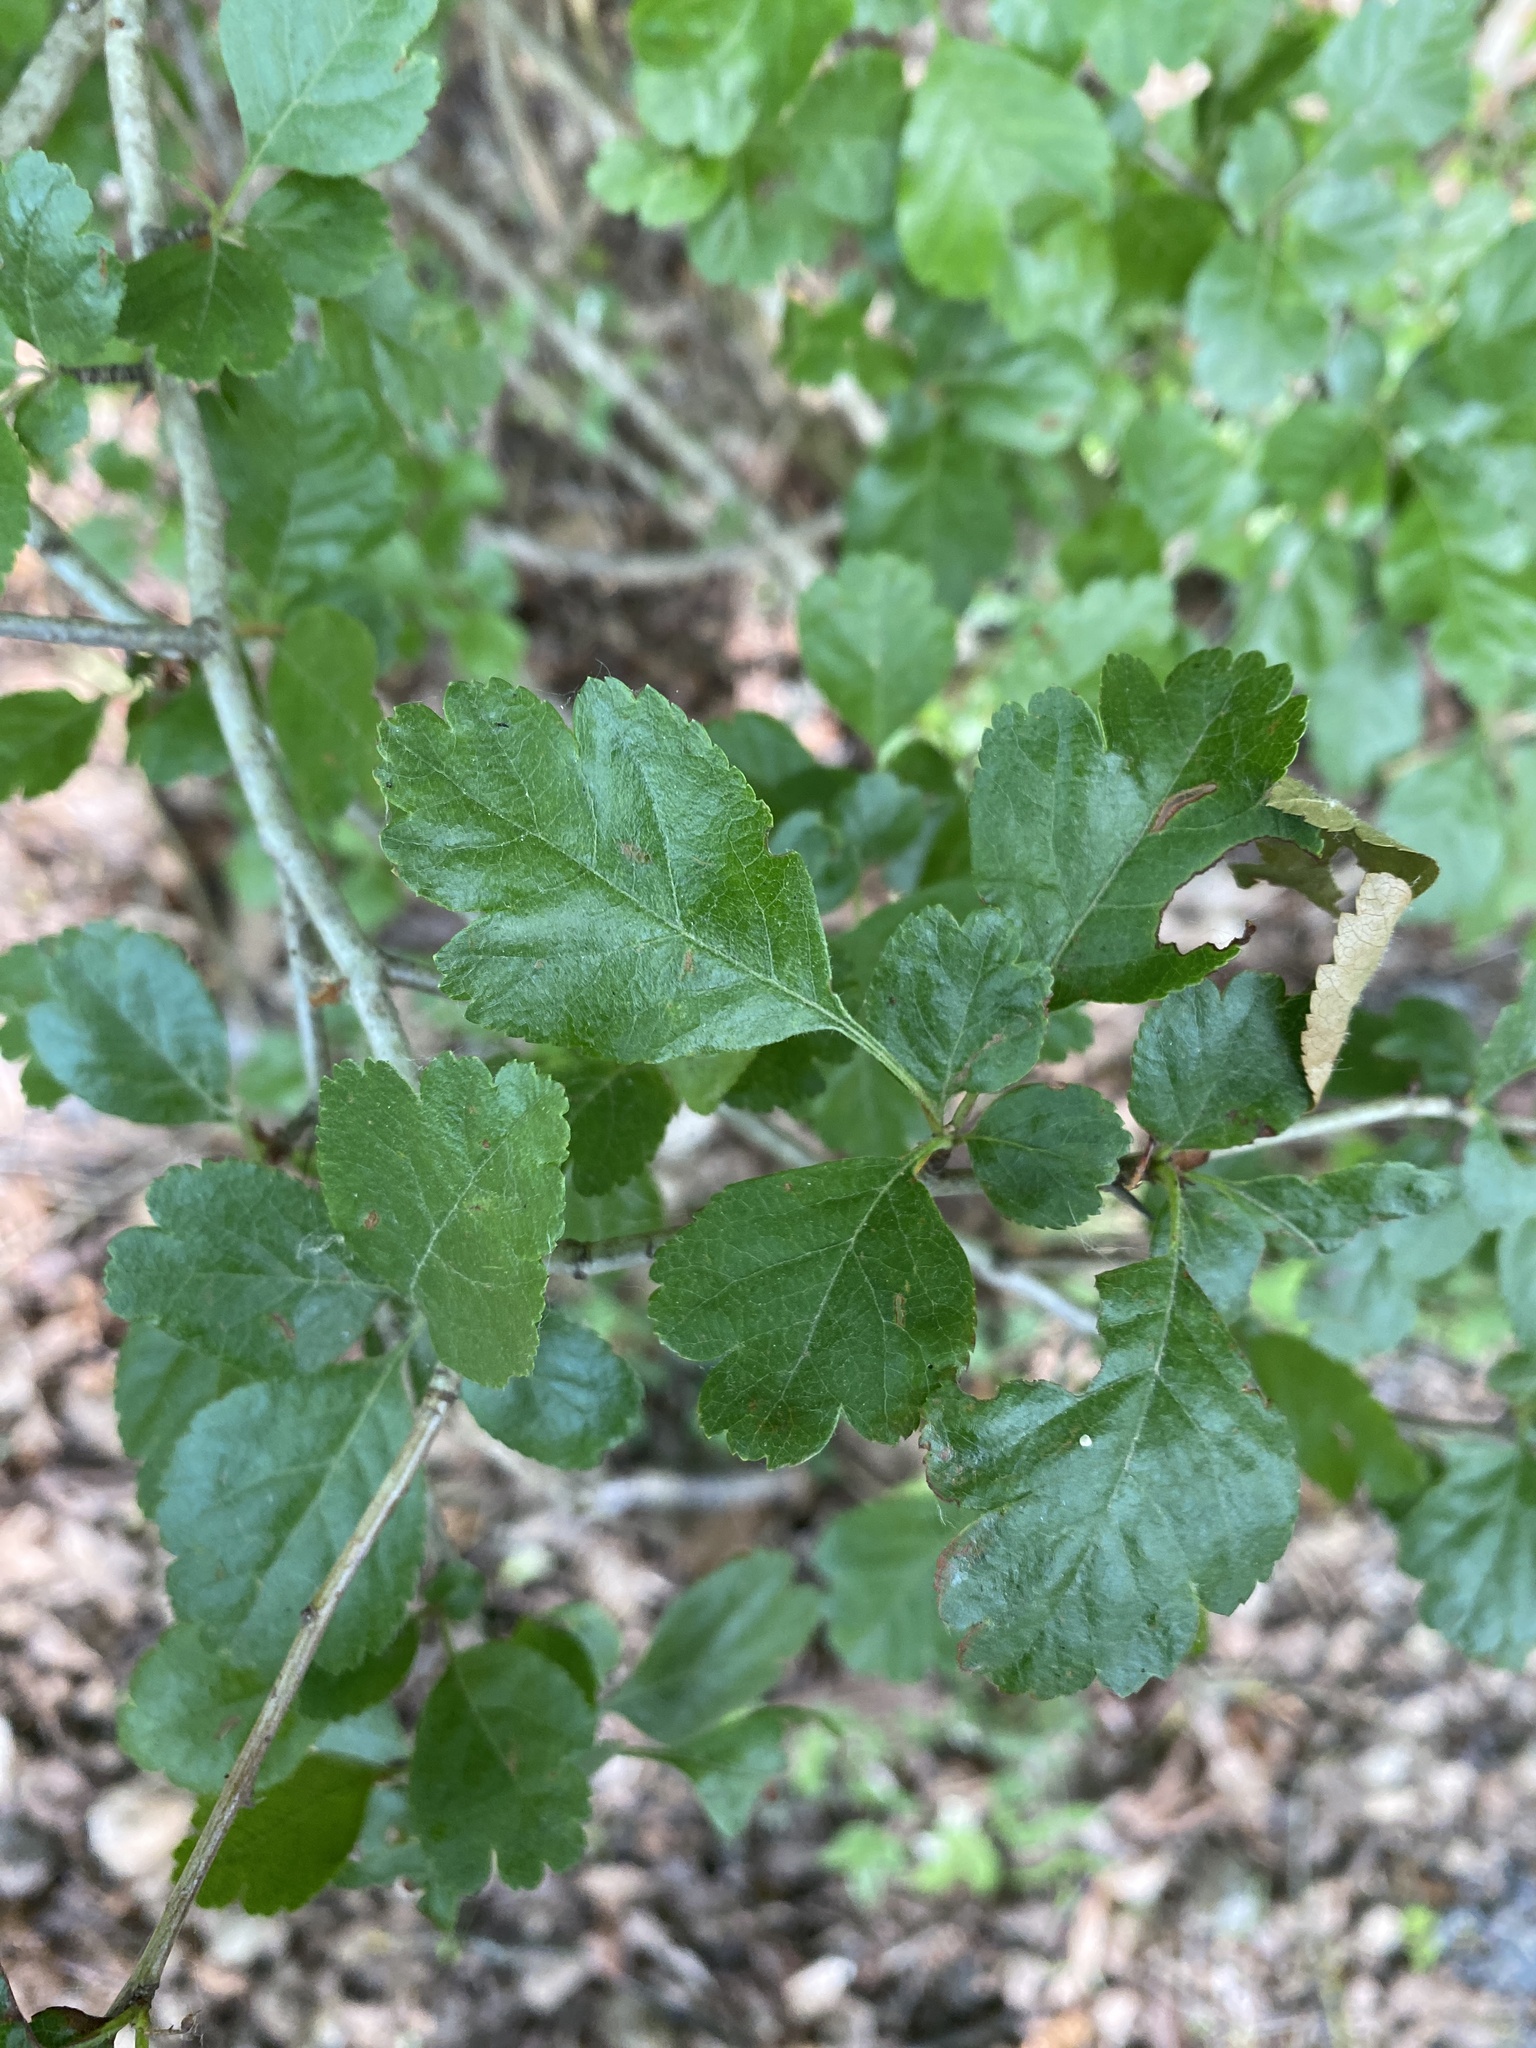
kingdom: Plantae
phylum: Tracheophyta
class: Magnoliopsida
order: Rosales
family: Rosaceae
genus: Crataegus
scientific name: Crataegus laevigata
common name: Midland hawthorn
